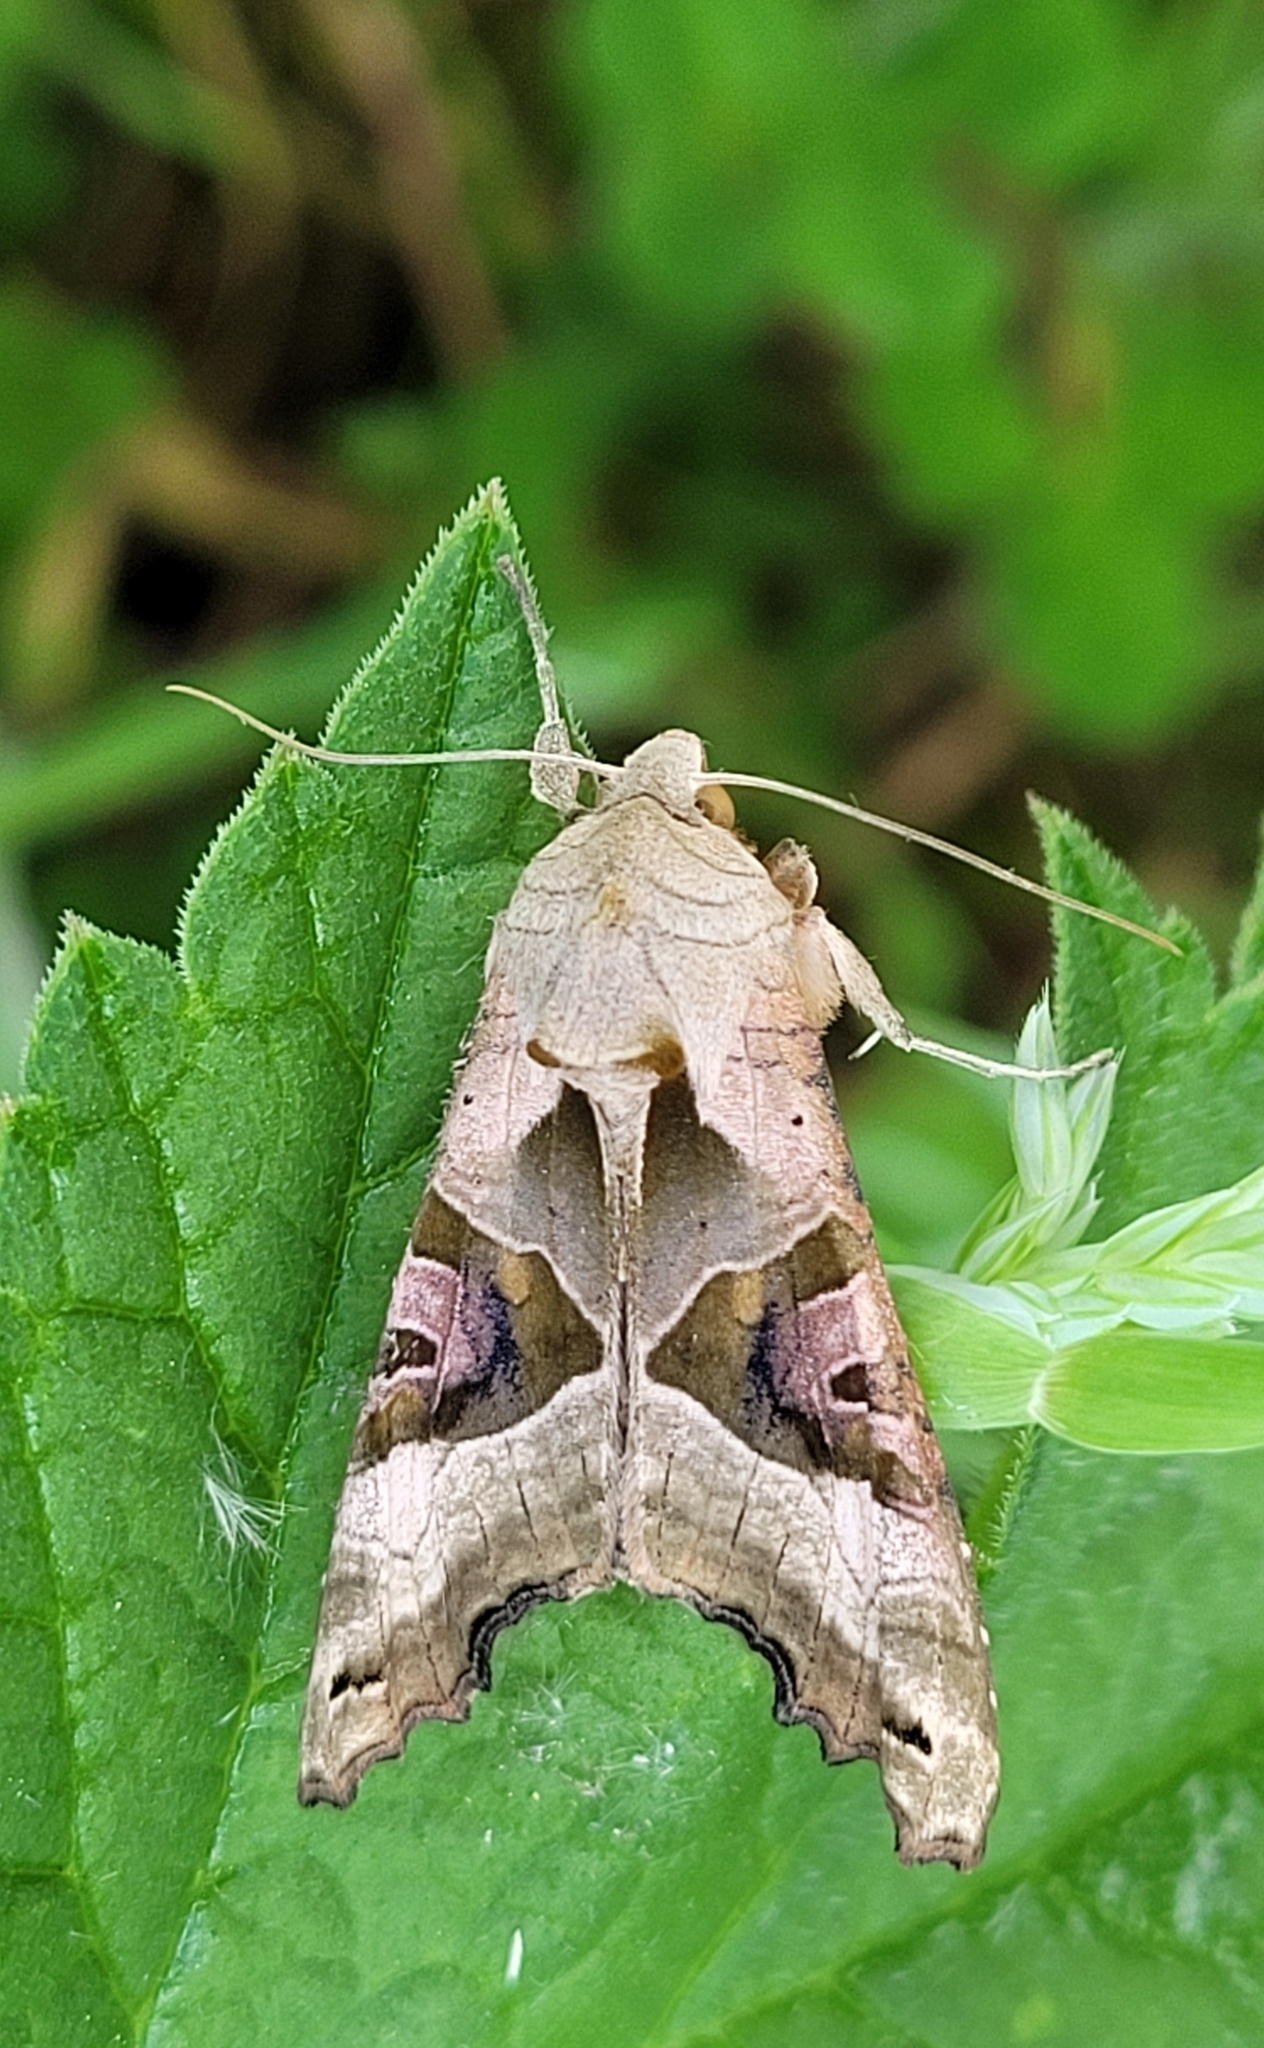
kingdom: Animalia
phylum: Arthropoda
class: Insecta
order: Lepidoptera
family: Noctuidae
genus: Phlogophora
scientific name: Phlogophora meticulosa
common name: Angle shades
